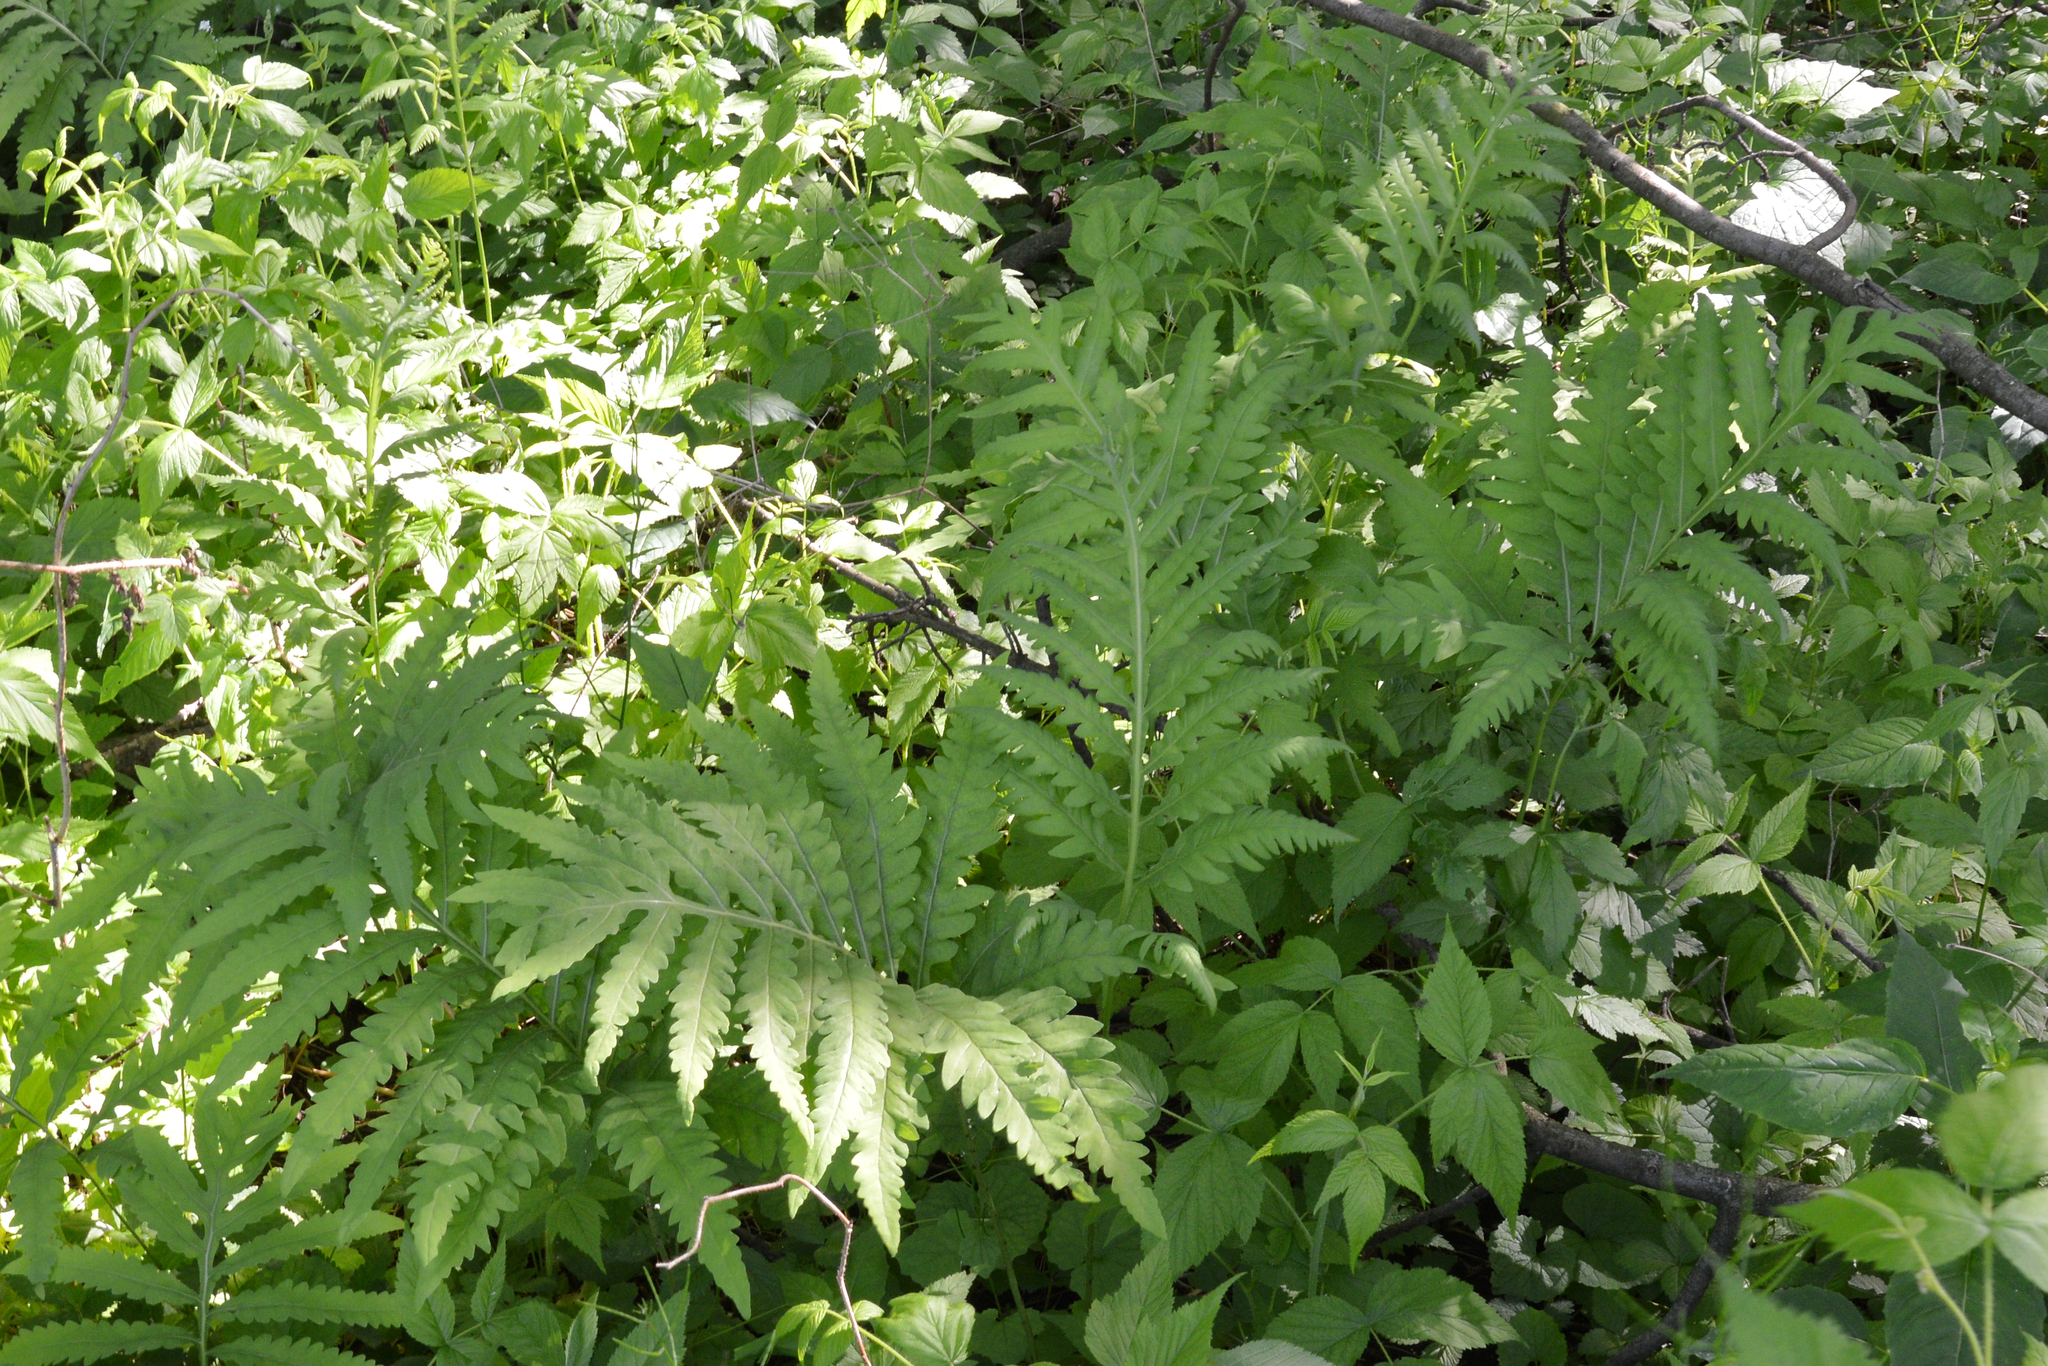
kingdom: Plantae
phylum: Tracheophyta
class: Polypodiopsida
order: Polypodiales
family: Onocleaceae
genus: Onoclea
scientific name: Onoclea sensibilis
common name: Sensitive fern
